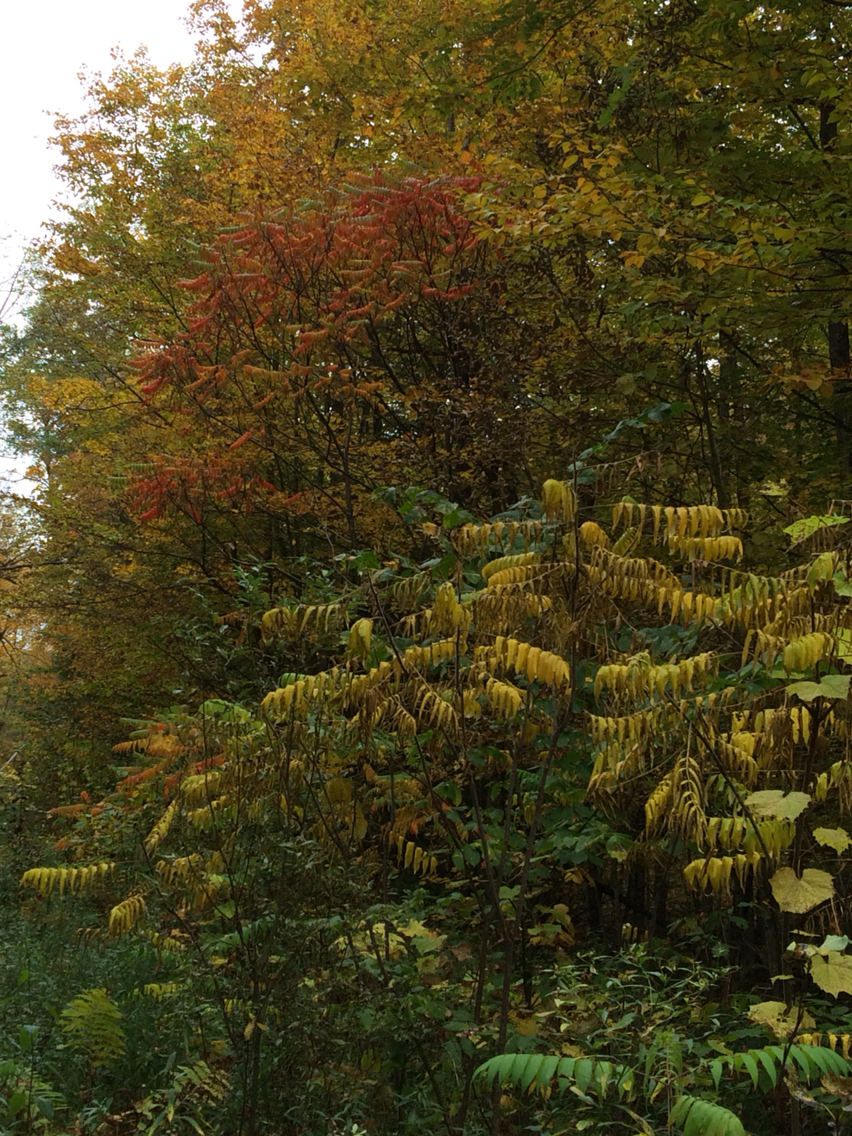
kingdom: Plantae
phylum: Tracheophyta
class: Magnoliopsida
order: Sapindales
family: Anacardiaceae
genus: Rhus
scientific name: Rhus typhina
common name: Staghorn sumac
